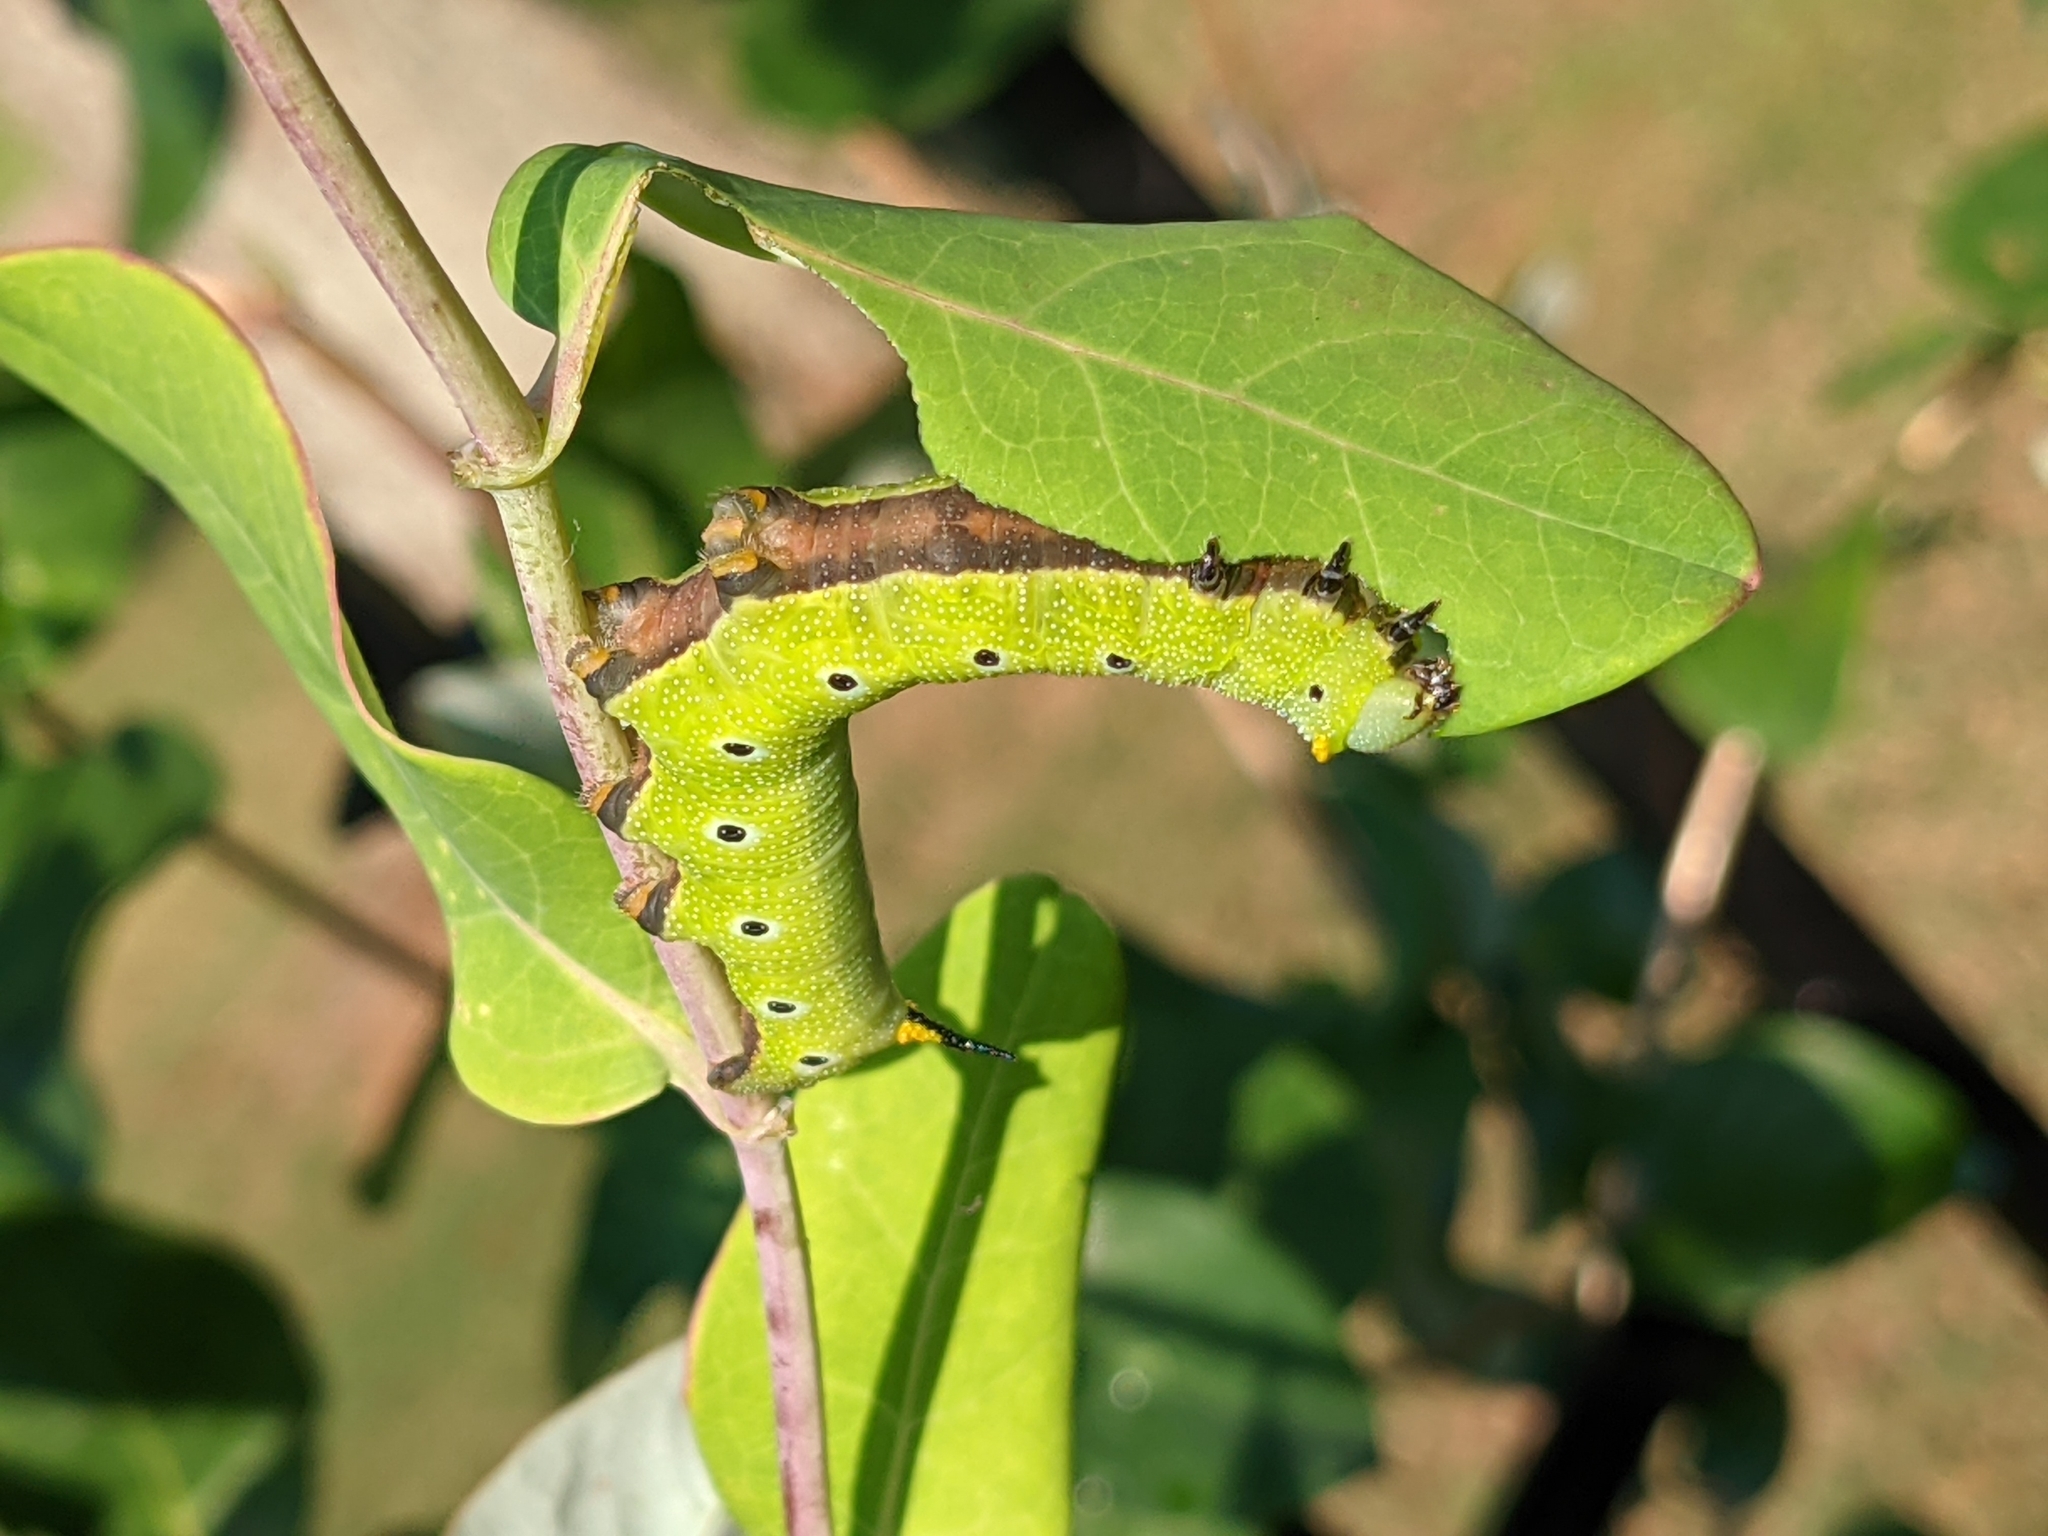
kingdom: Animalia
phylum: Arthropoda
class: Insecta
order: Lepidoptera
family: Sphingidae
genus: Hemaris
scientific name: Hemaris diffinis
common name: Bumblebee moth
